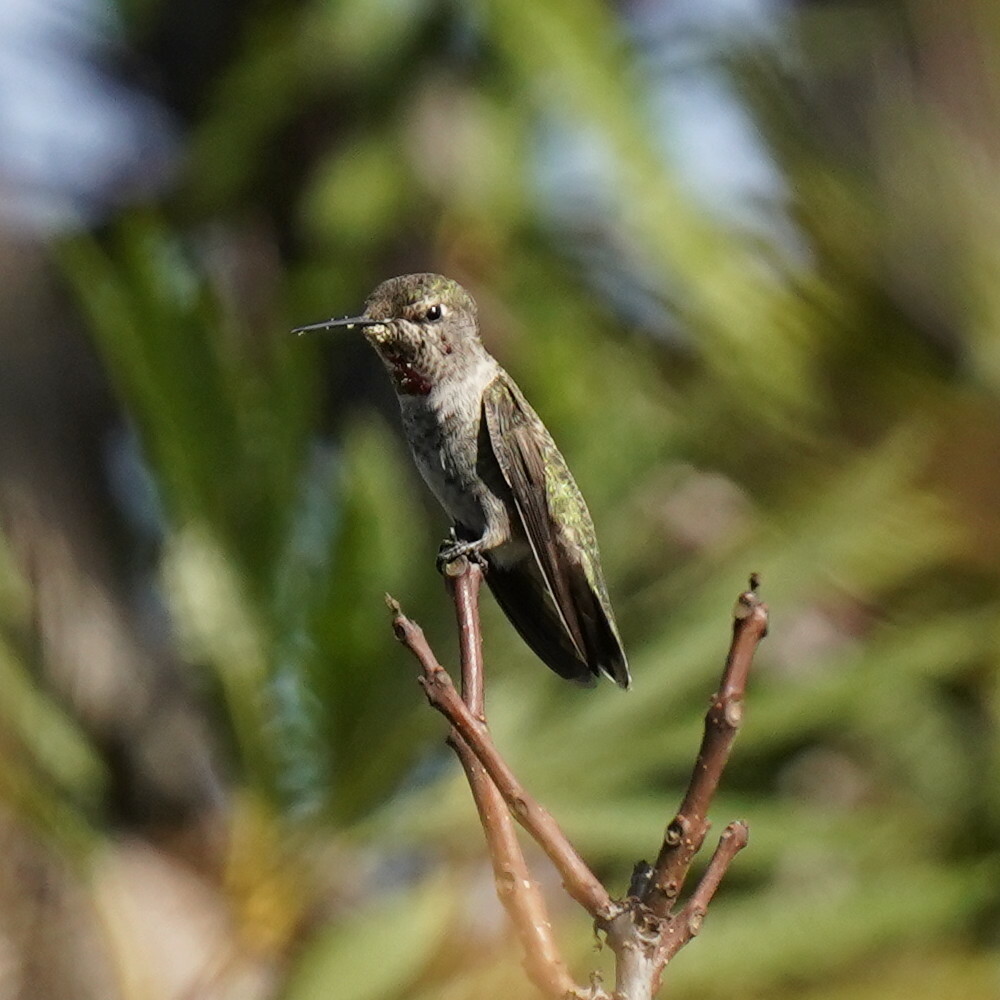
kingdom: Animalia
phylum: Chordata
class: Aves
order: Apodiformes
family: Trochilidae
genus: Calypte
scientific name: Calypte anna
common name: Anna's hummingbird
